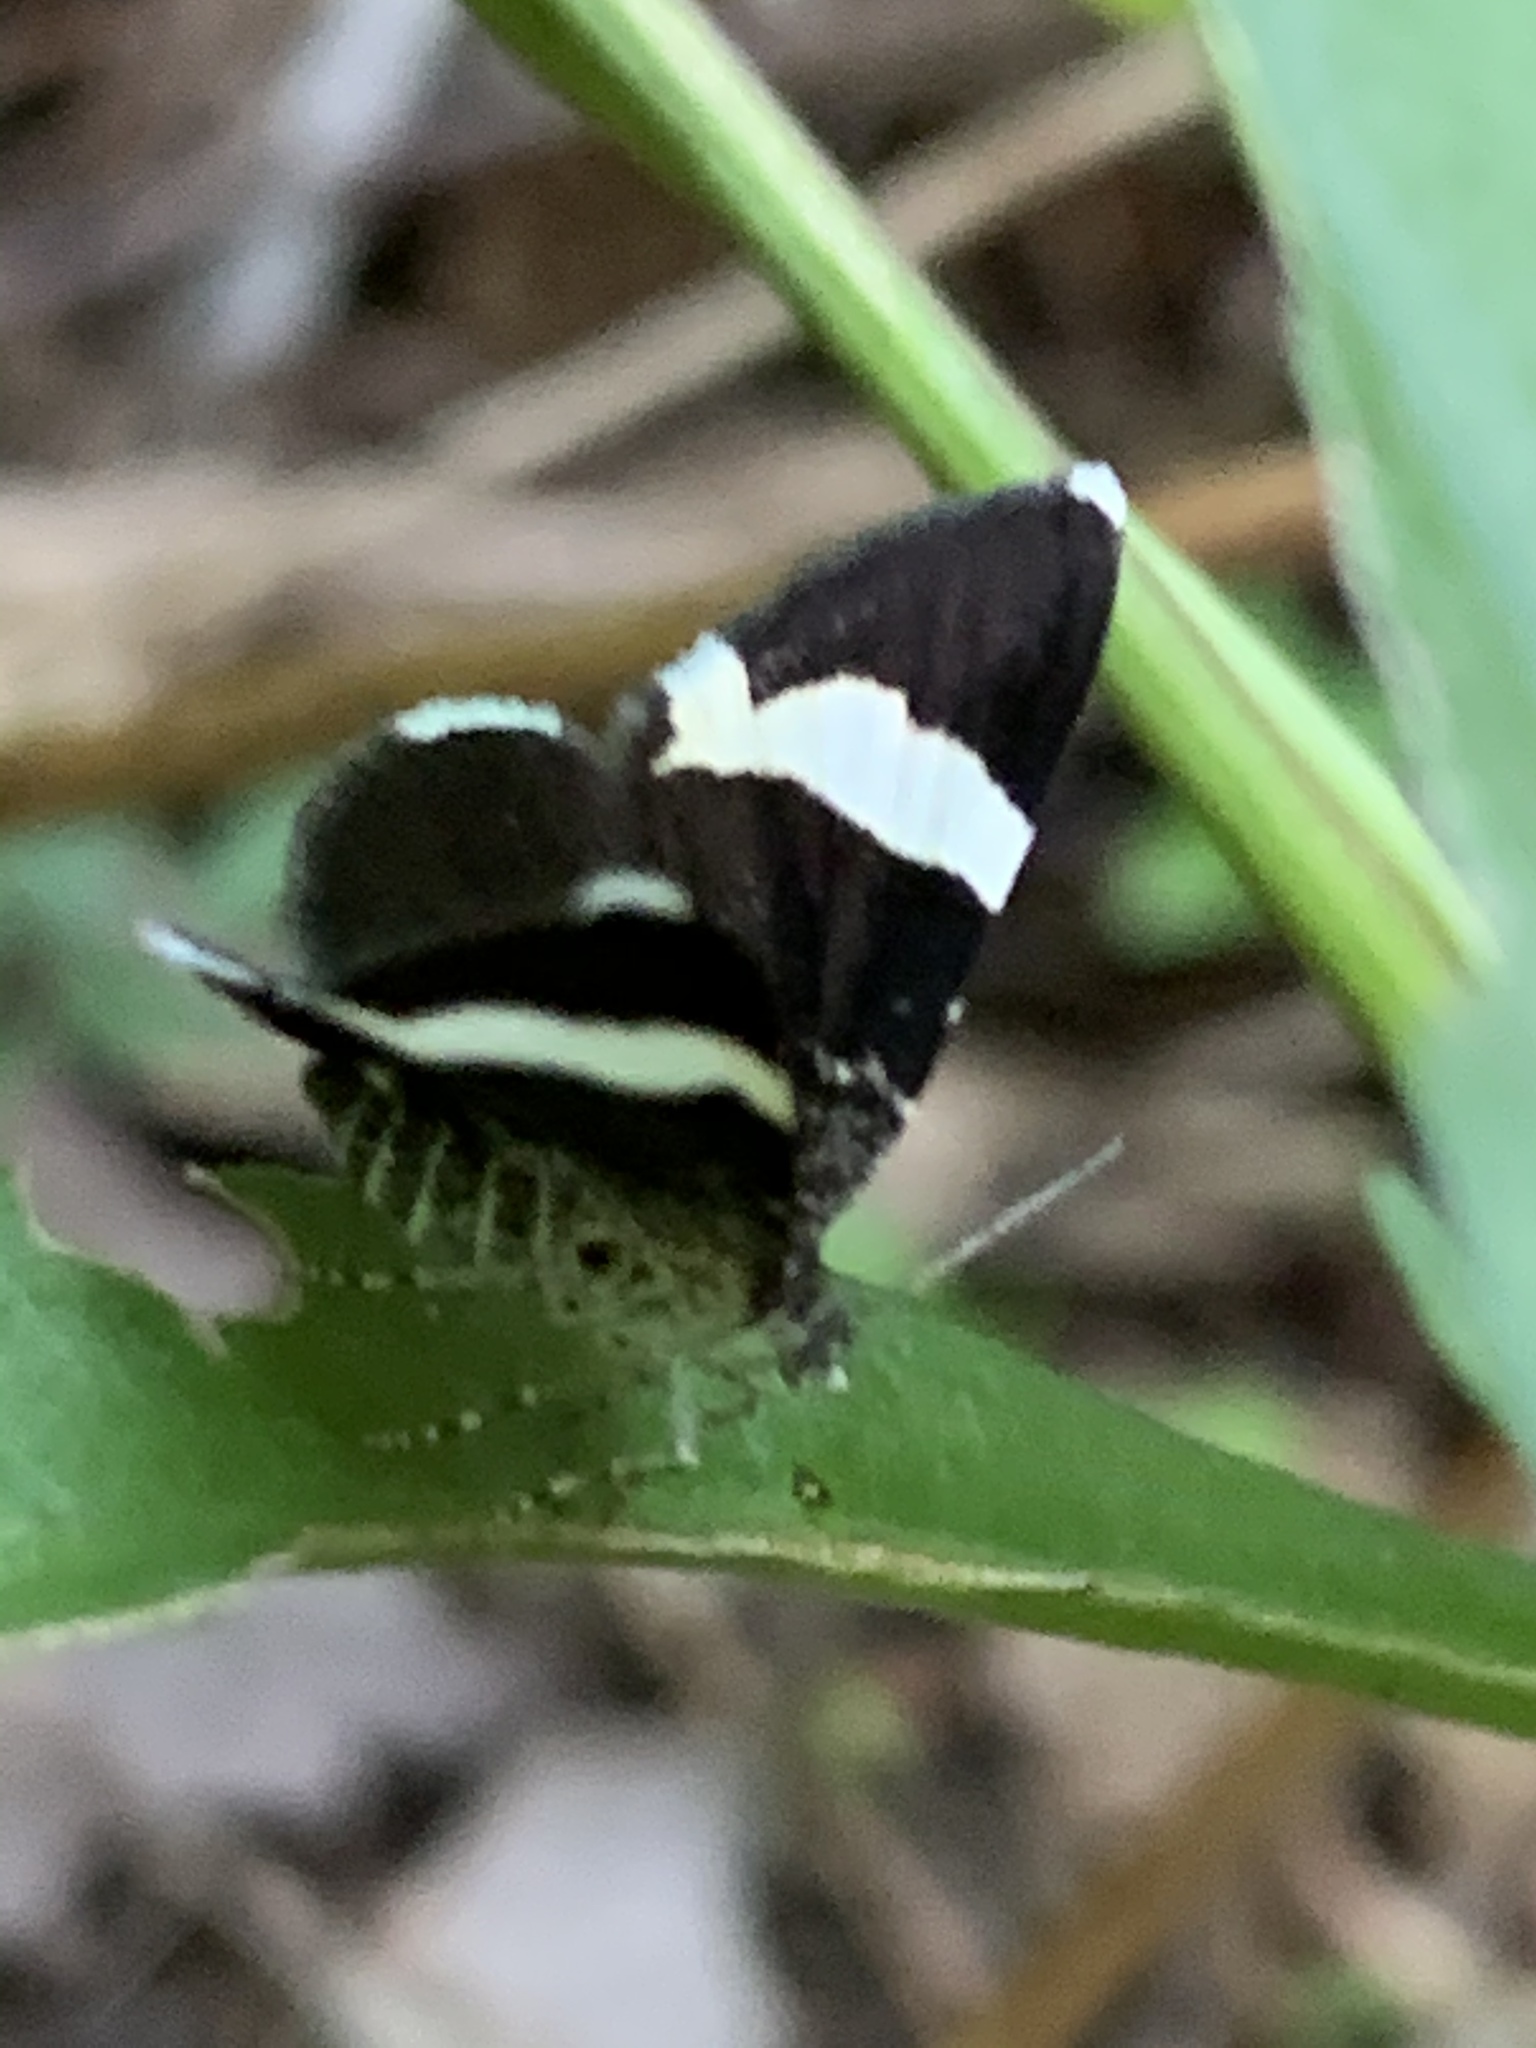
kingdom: Animalia
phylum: Arthropoda
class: Insecta
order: Lepidoptera
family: Geometridae
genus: Trichodezia
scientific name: Trichodezia albovittata
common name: White striped black
